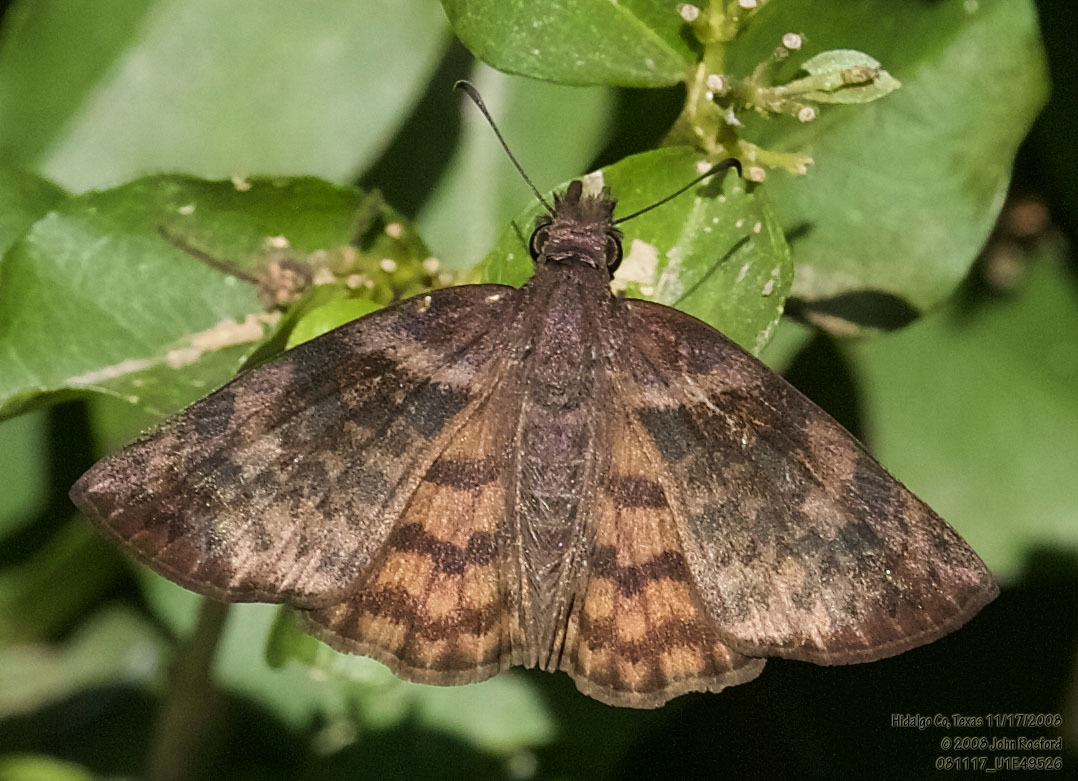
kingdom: Animalia
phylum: Arthropoda
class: Insecta
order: Lepidoptera
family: Hesperiidae
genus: Timochares
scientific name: Timochares ruptifasciata
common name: Brown-banded skipper
